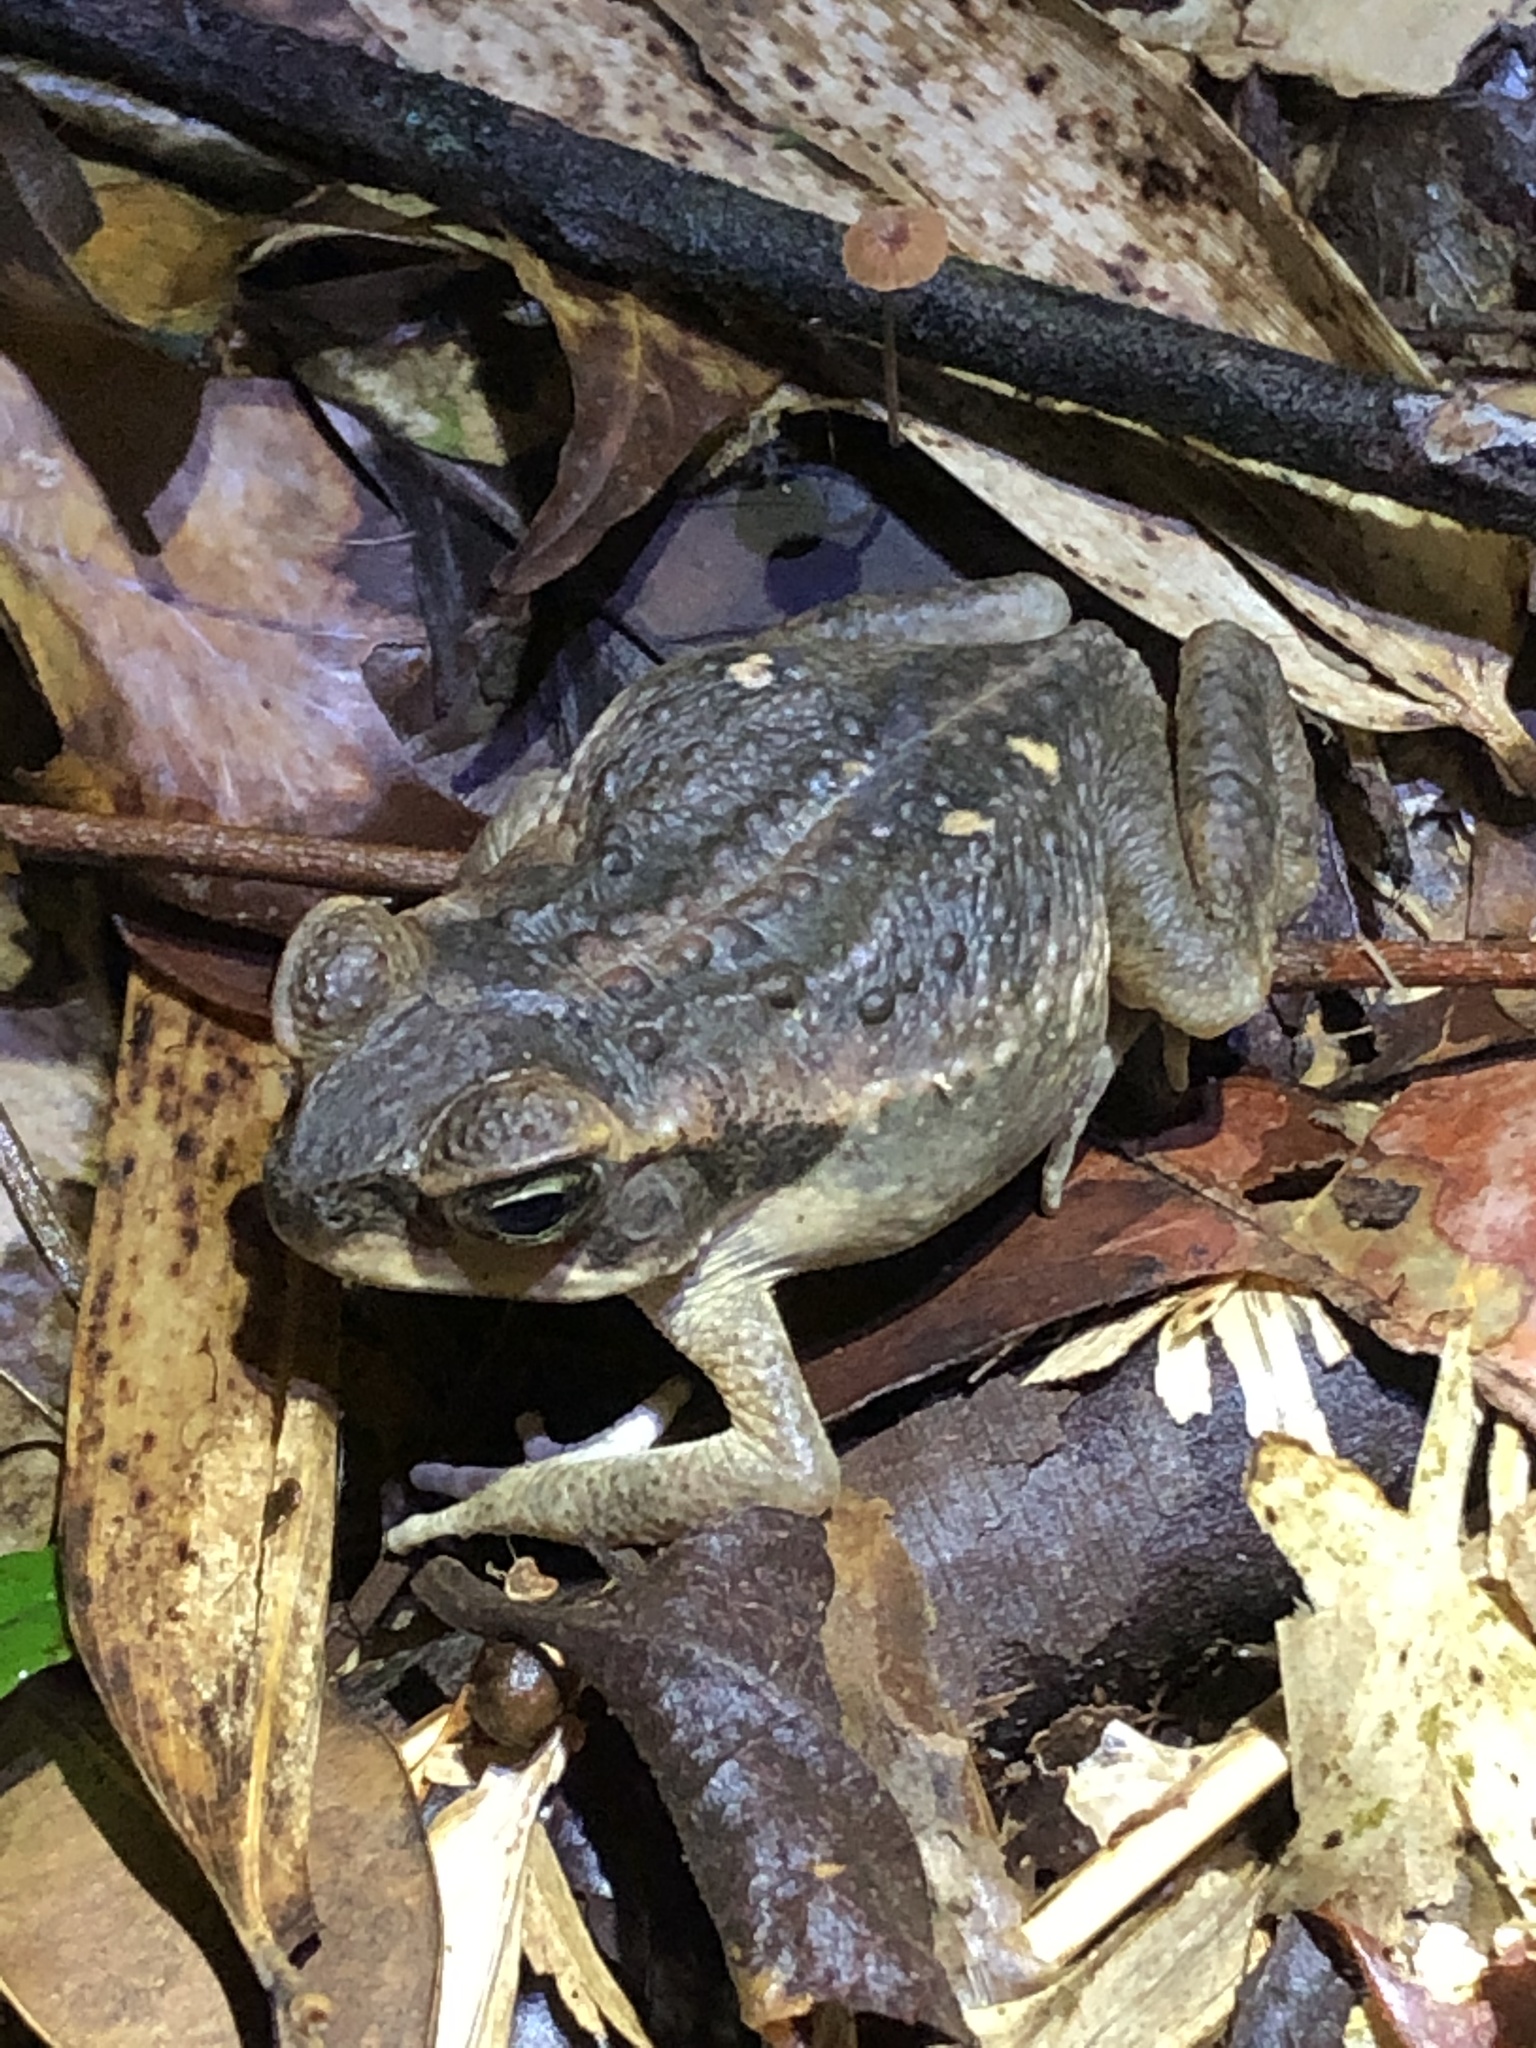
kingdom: Animalia
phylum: Chordata
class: Amphibia
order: Anura
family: Bufonidae
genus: Rhinella
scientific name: Rhinella marina
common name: Cane toad
